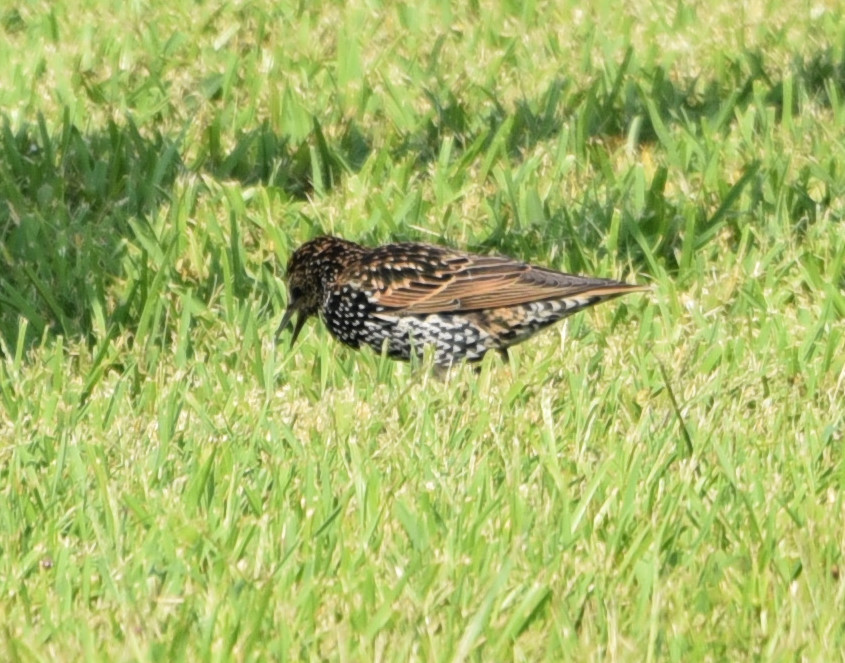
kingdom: Animalia
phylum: Chordata
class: Aves
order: Passeriformes
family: Sturnidae
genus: Sturnus
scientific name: Sturnus vulgaris
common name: Common starling
